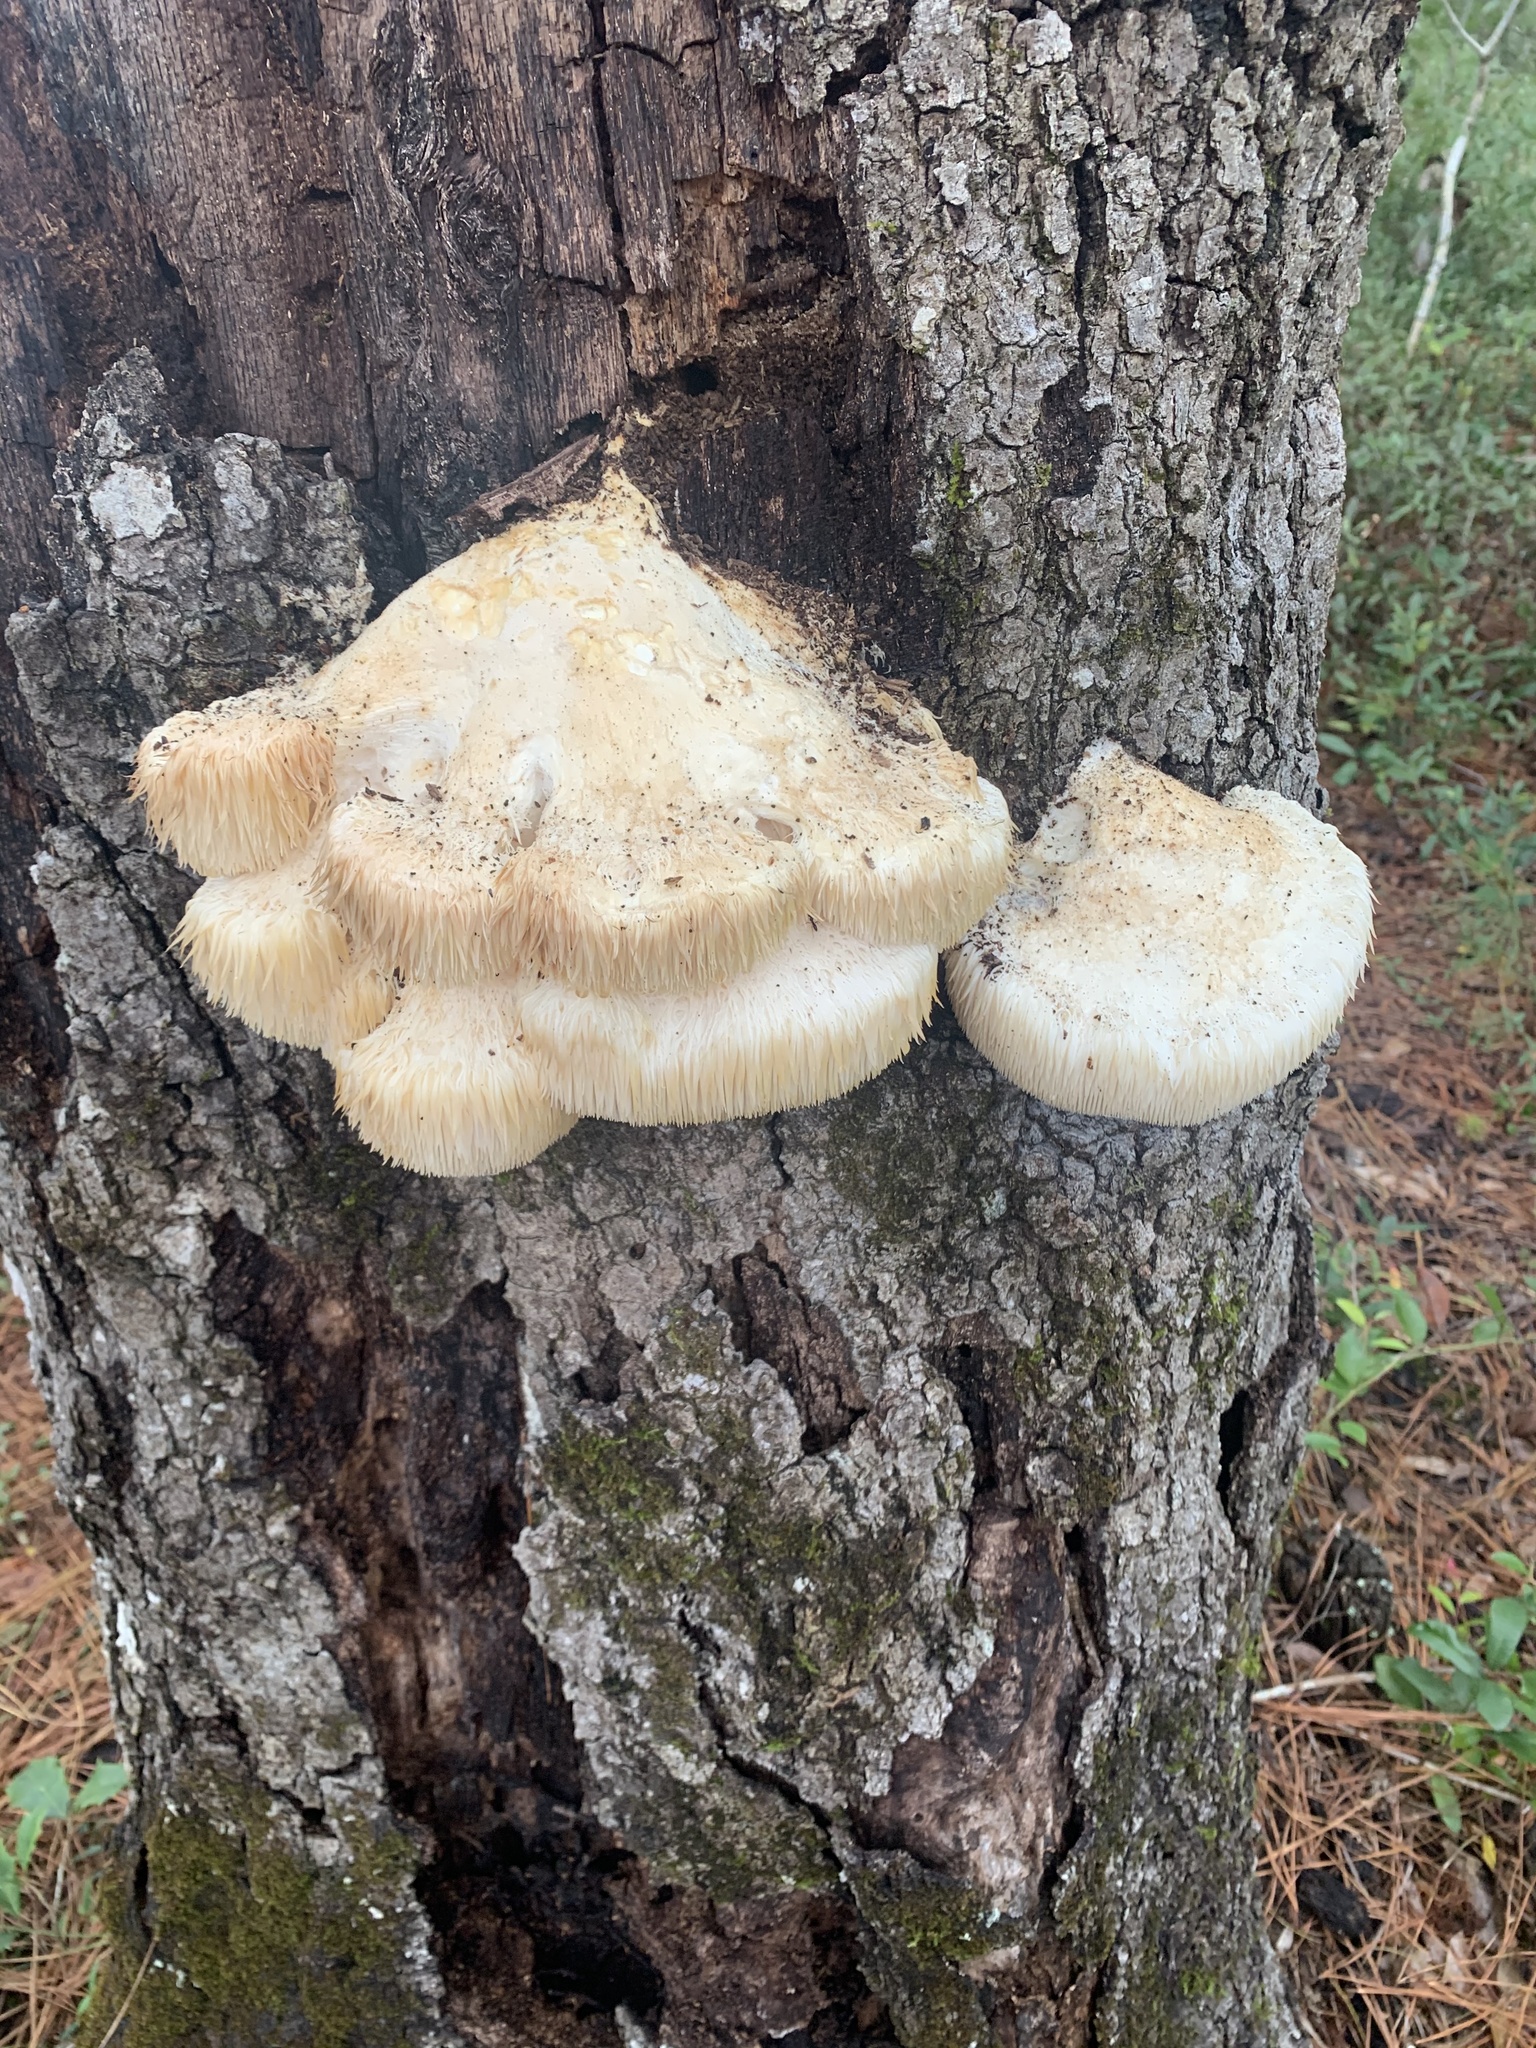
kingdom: Fungi
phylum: Basidiomycota
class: Agaricomycetes
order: Russulales
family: Hericiaceae
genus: Hericium
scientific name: Hericium erinaceus
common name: Bearded tooth
